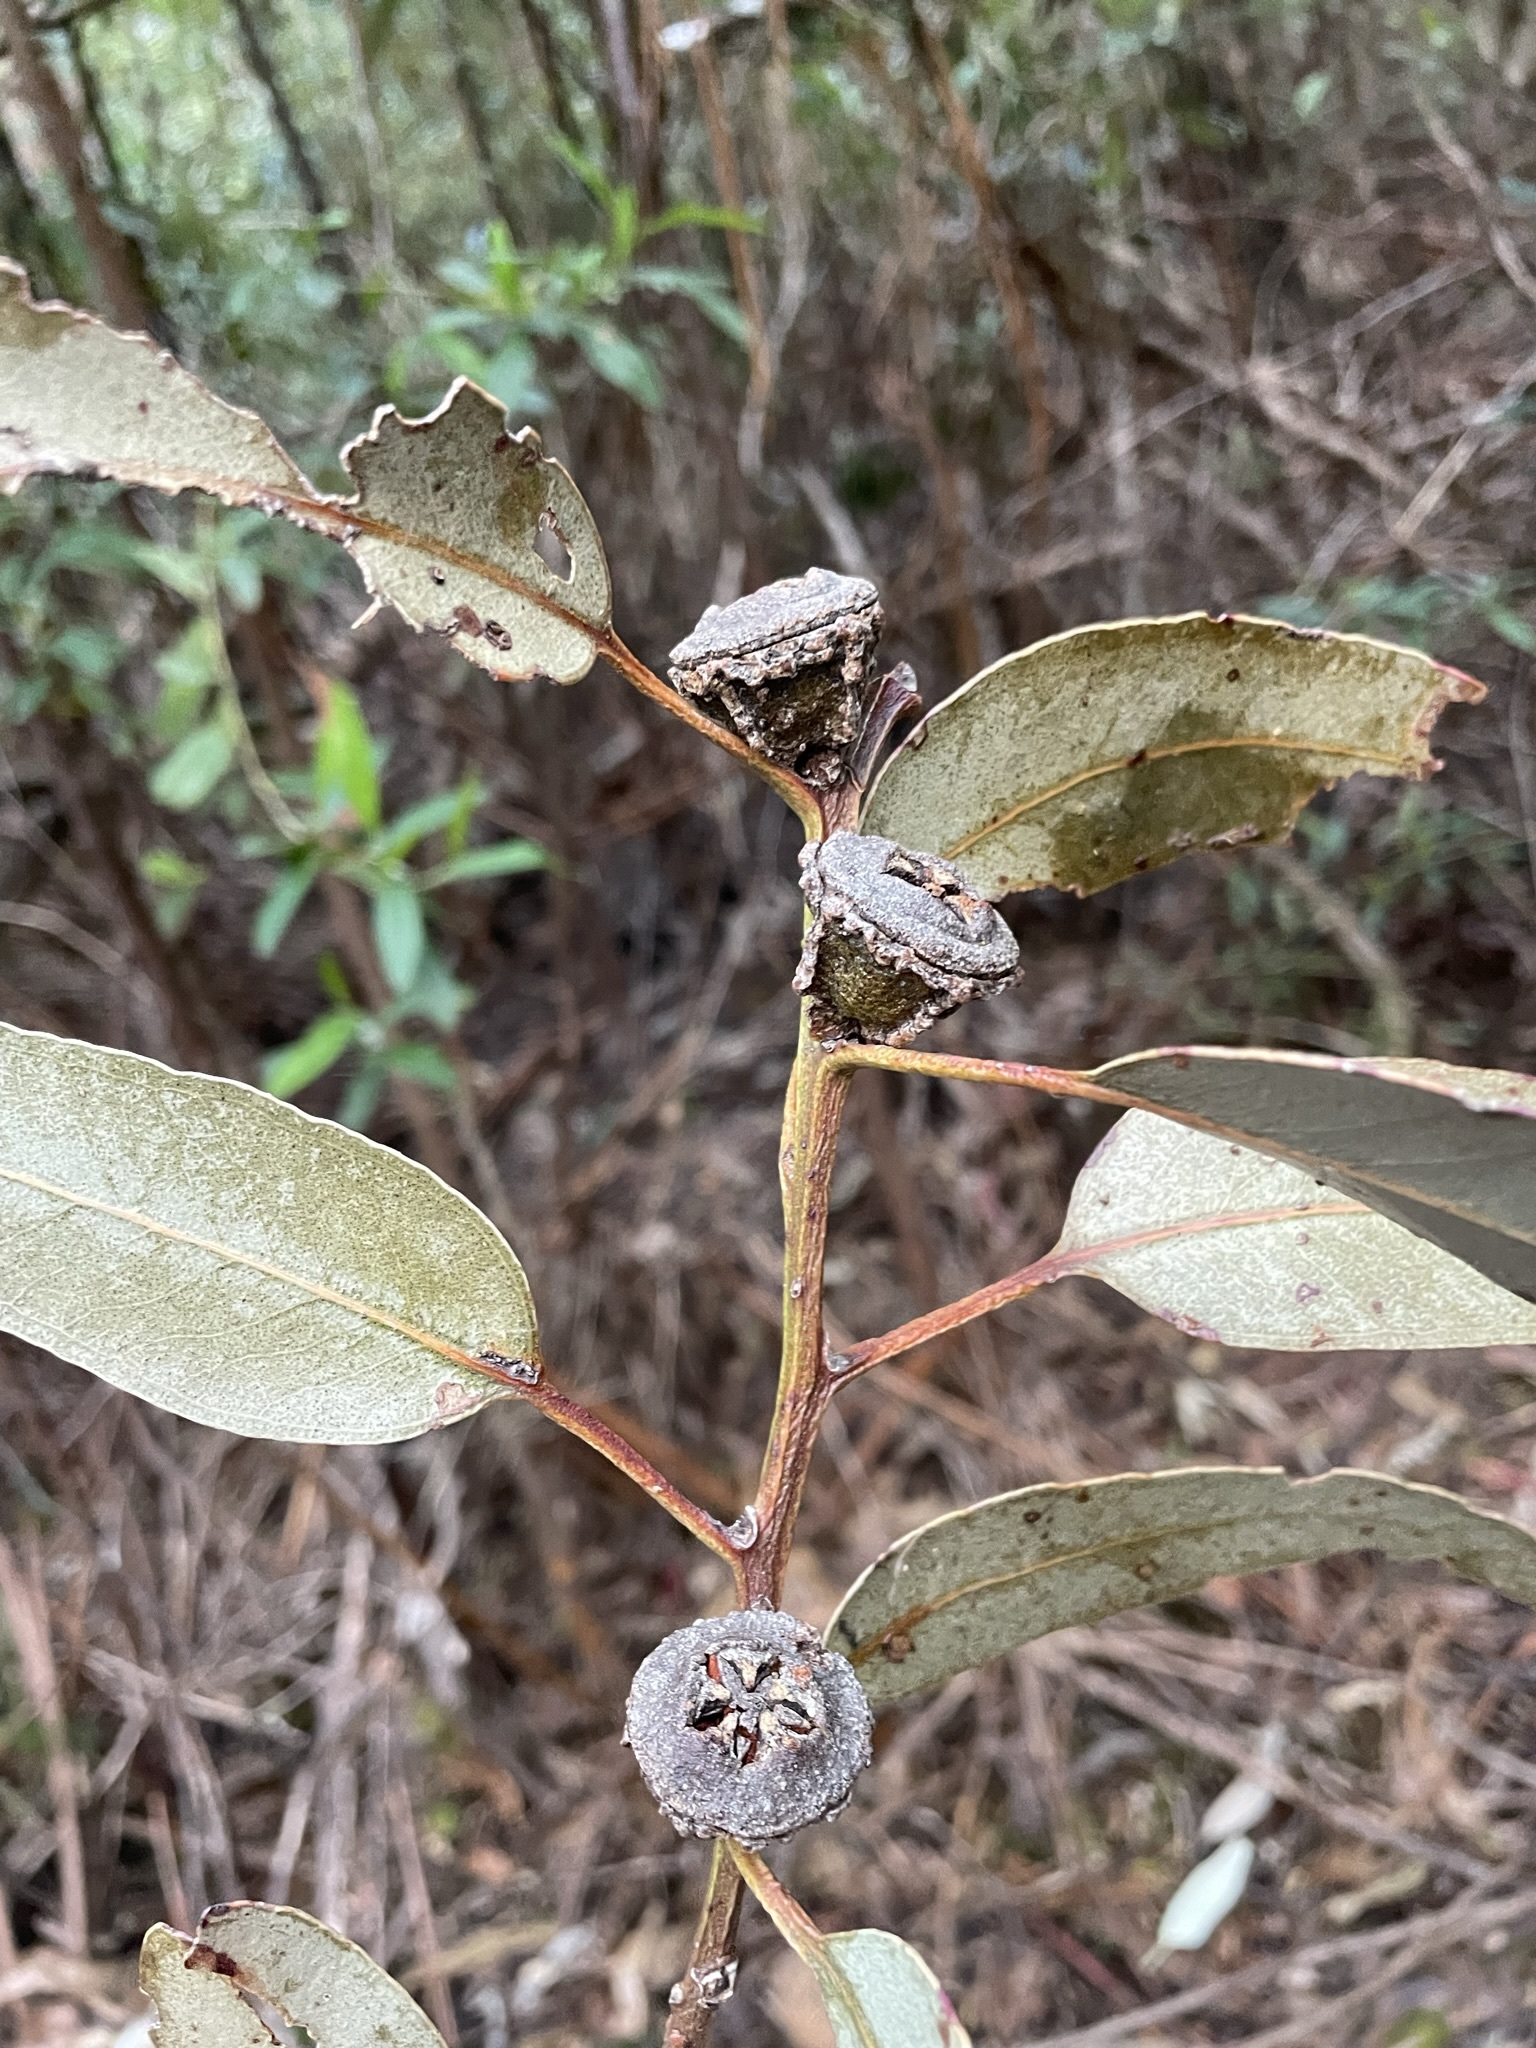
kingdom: Plantae
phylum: Tracheophyta
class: Magnoliopsida
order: Myrtales
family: Myrtaceae
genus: Eucalyptus
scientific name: Eucalyptus globulus
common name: Southern blue-gum
